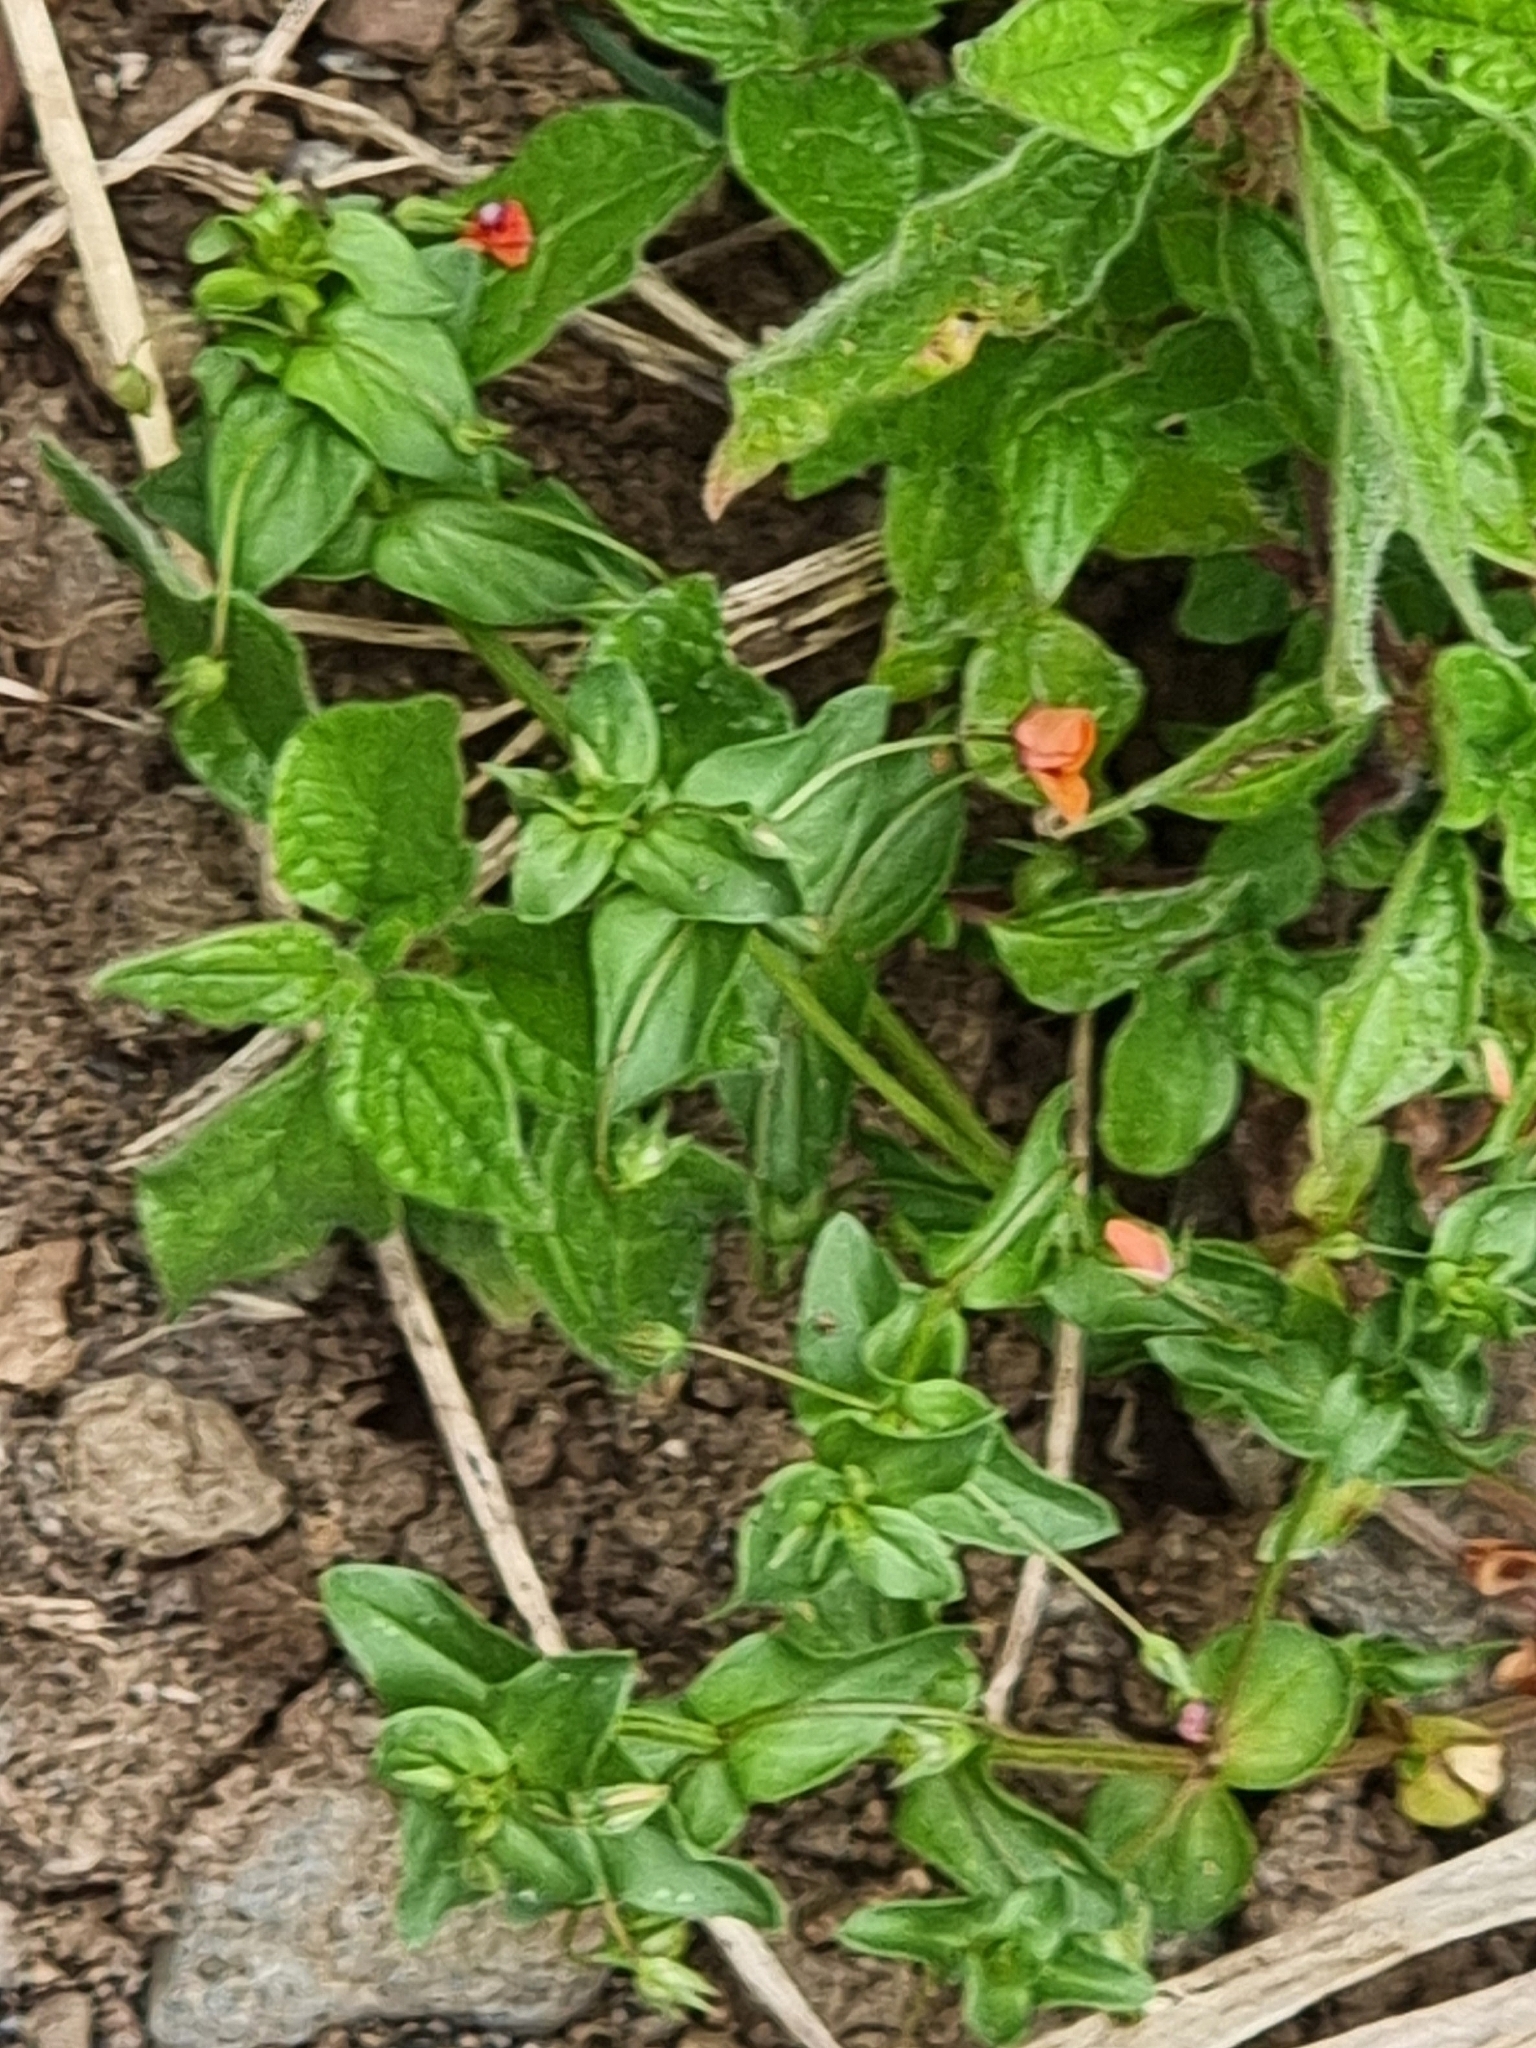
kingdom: Plantae
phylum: Tracheophyta
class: Magnoliopsida
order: Ericales
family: Primulaceae
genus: Lysimachia
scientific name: Lysimachia arvensis
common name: Scarlet pimpernel
